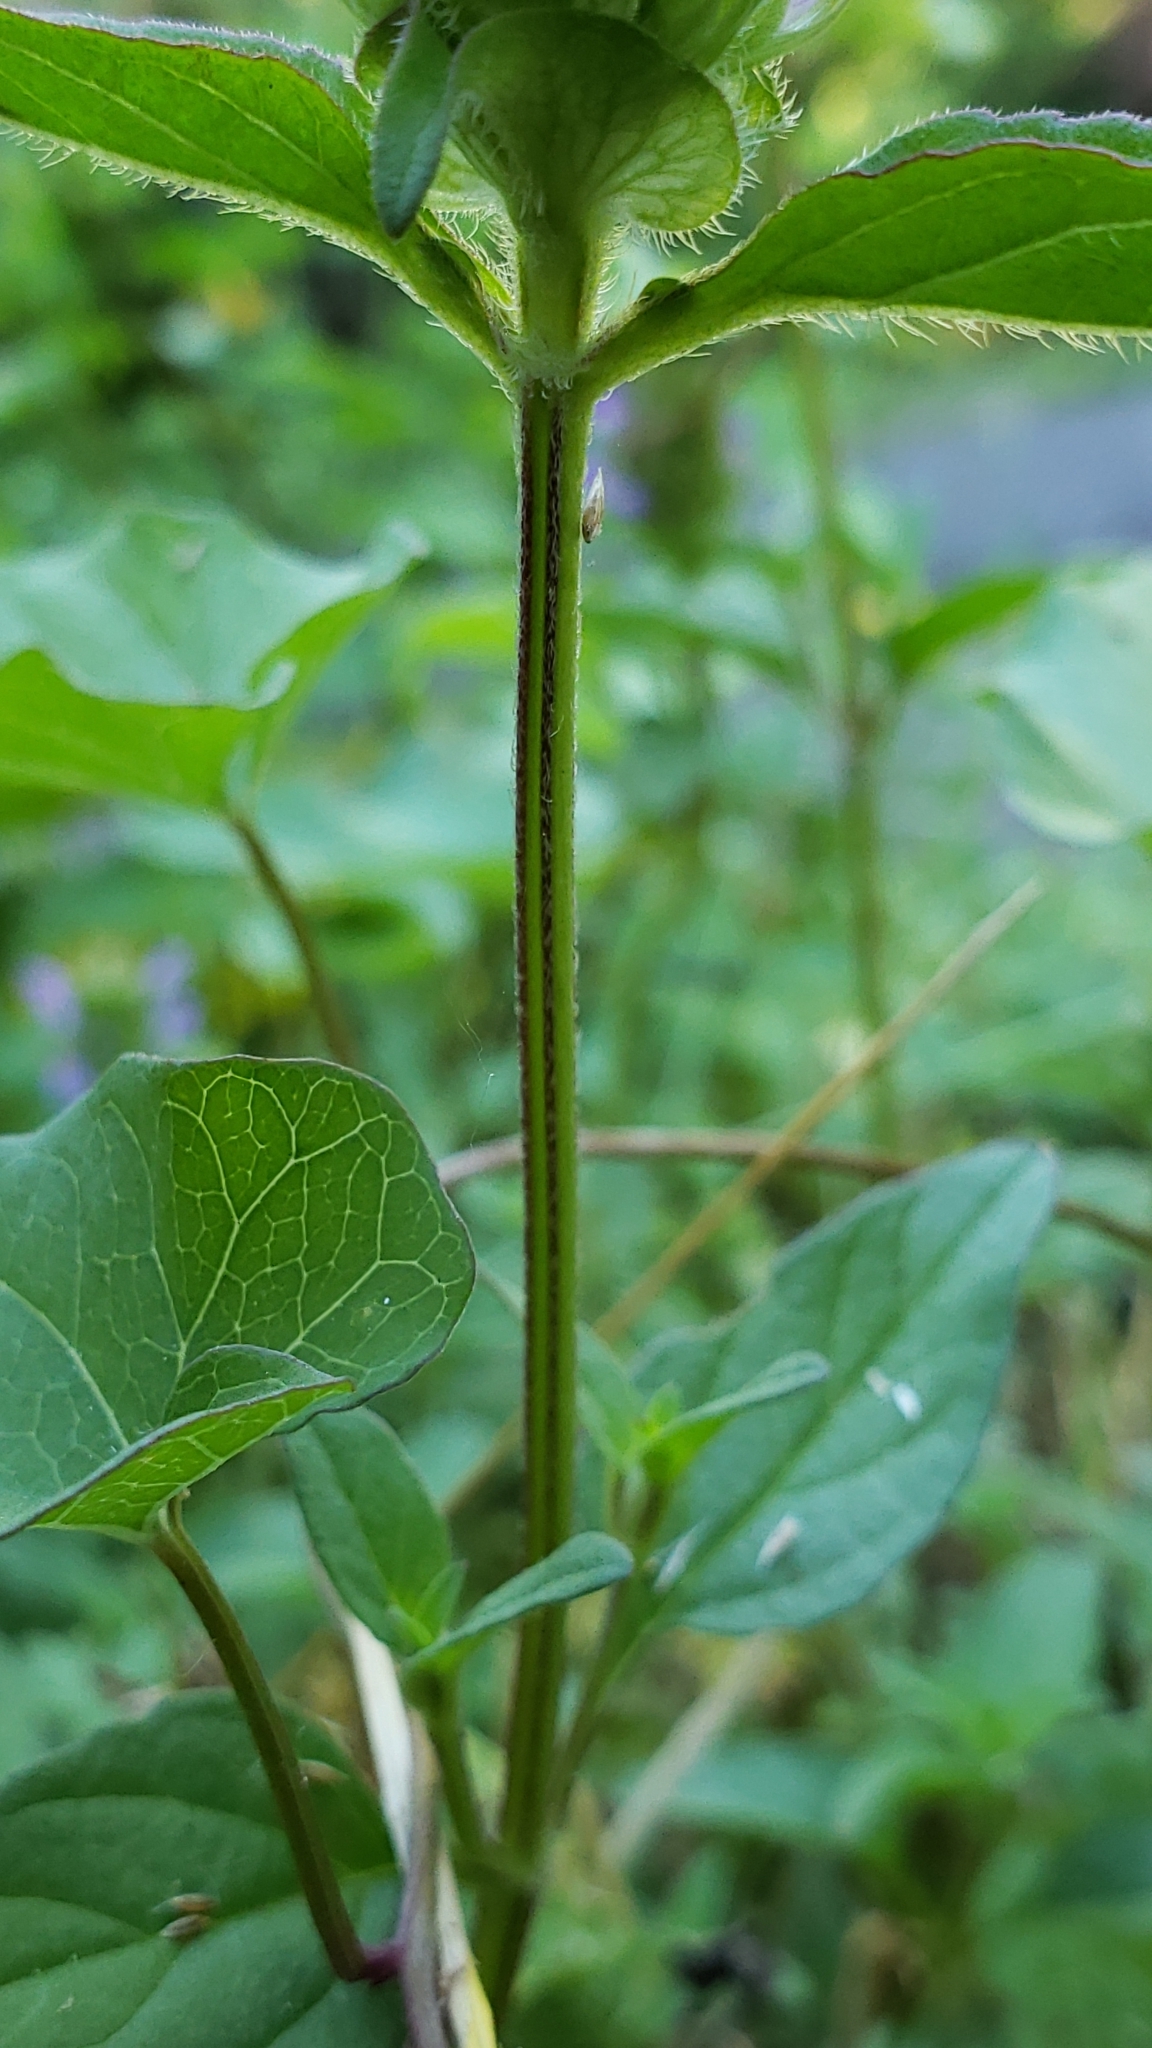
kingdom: Plantae
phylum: Tracheophyta
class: Magnoliopsida
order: Lamiales
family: Lamiaceae
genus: Prunella
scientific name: Prunella vulgaris
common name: Heal-all
